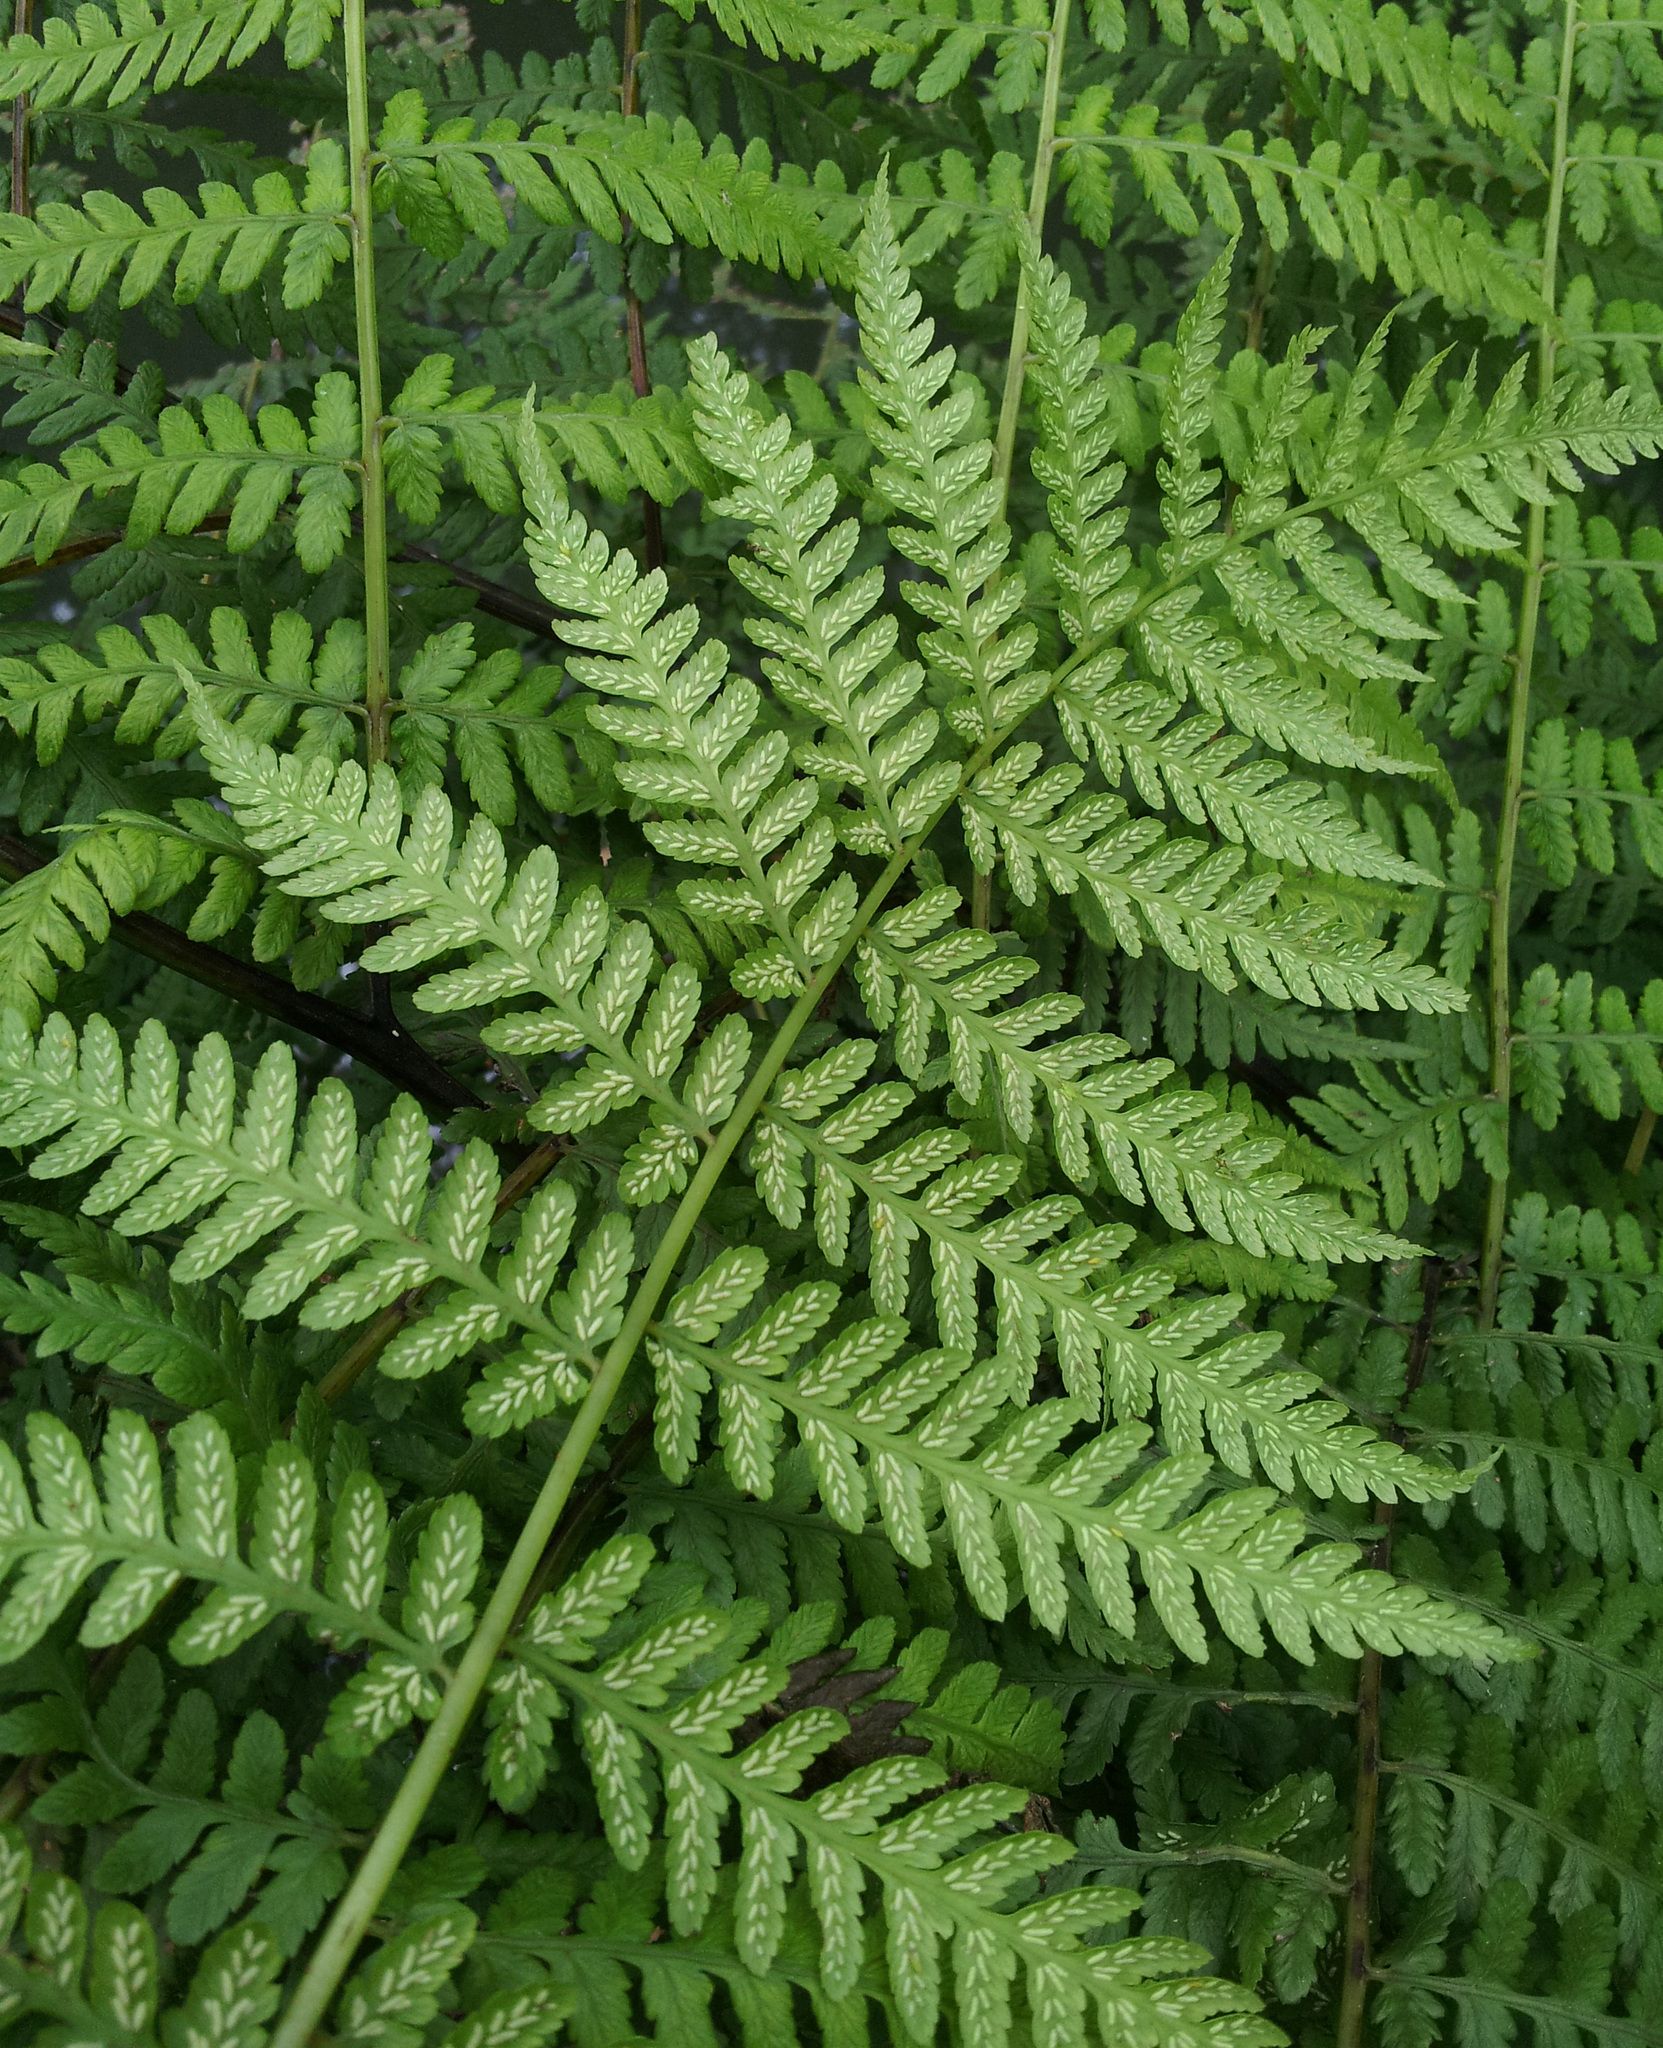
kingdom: Plantae
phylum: Tracheophyta
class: Polypodiopsida
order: Polypodiales
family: Athyriaceae
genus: Diplazium
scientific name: Diplazium australe
